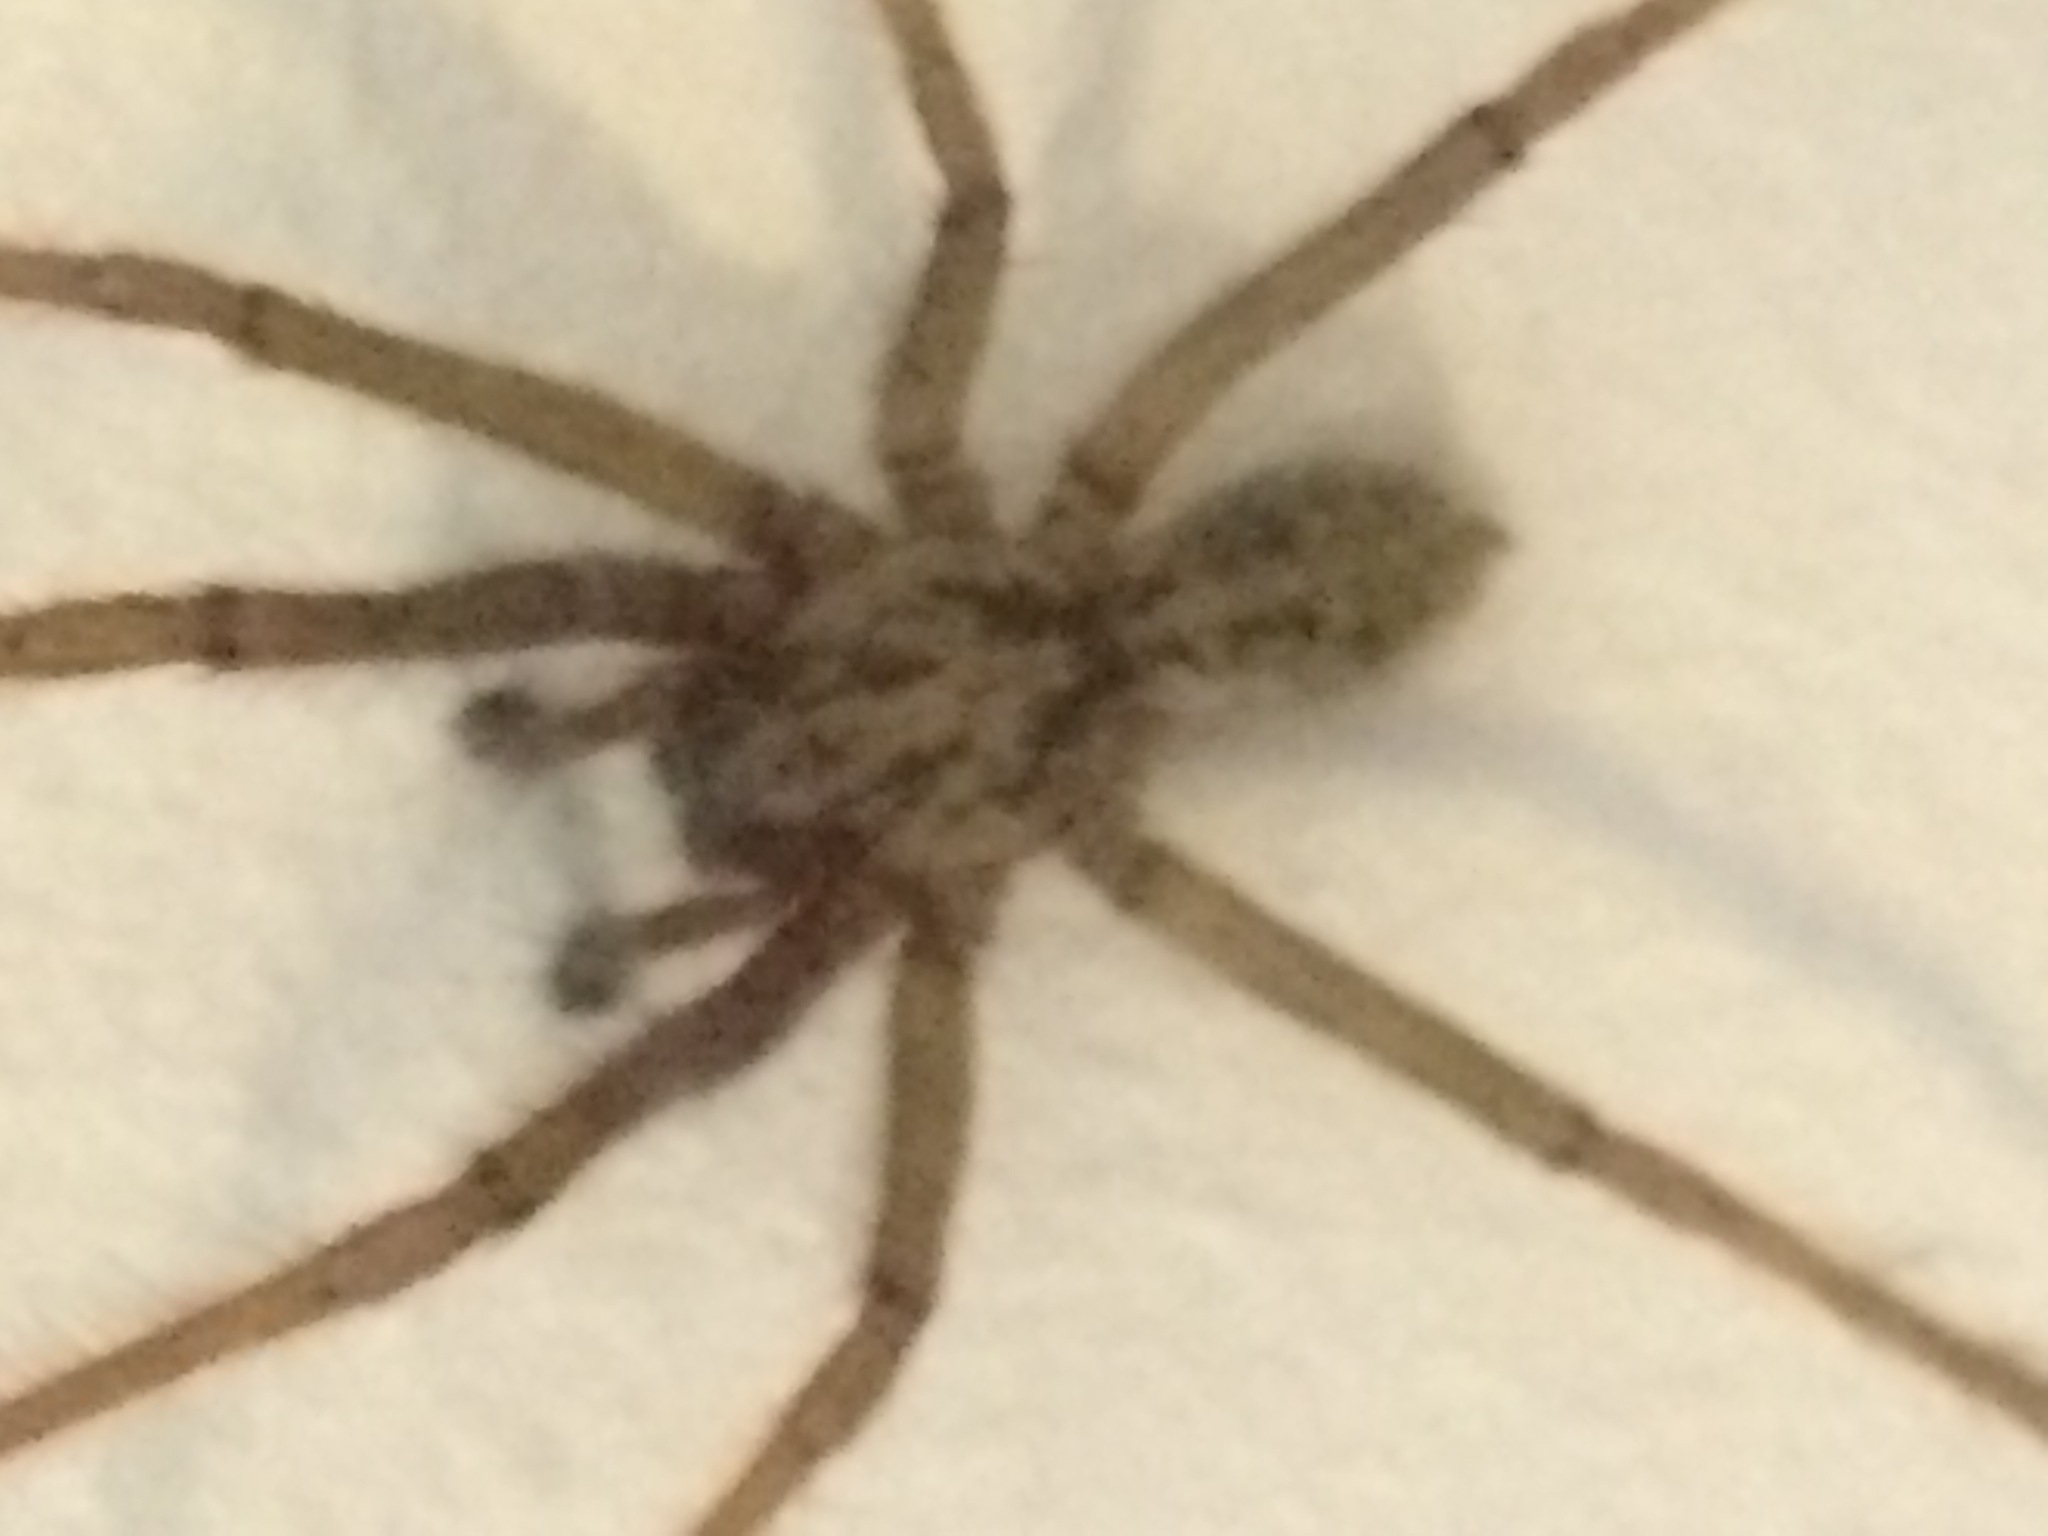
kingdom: Animalia
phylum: Arthropoda
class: Arachnida
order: Araneae
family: Agelenidae
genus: Eratigena
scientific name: Eratigena duellica
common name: Giant house spider
